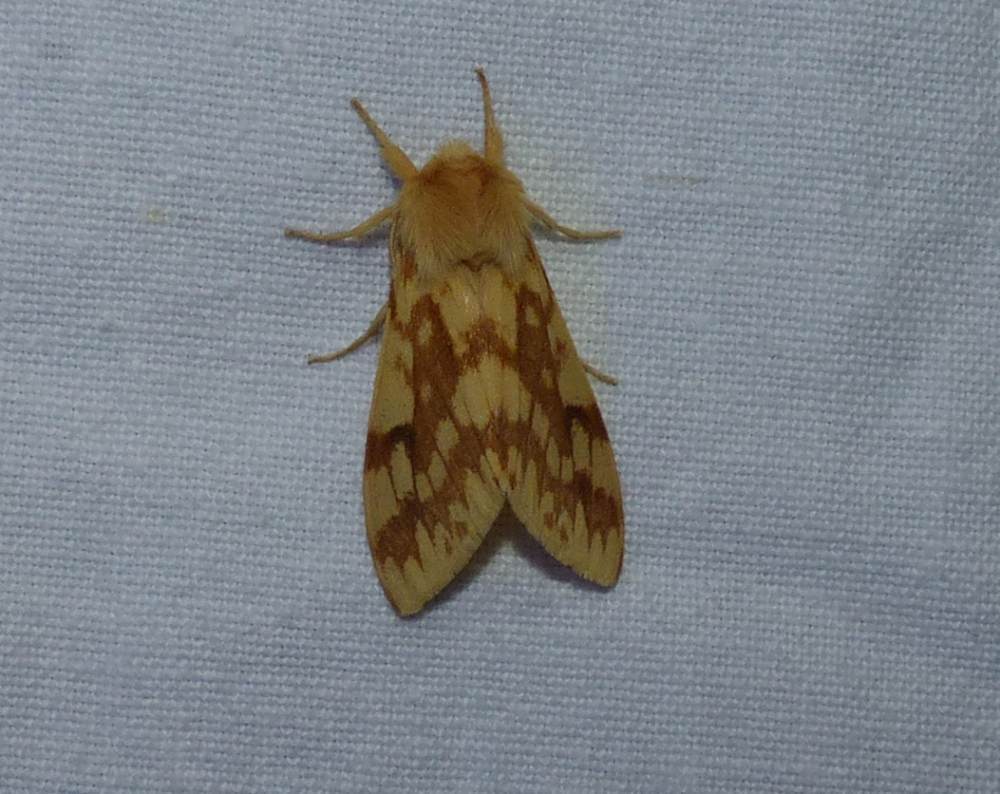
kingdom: Animalia
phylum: Arthropoda
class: Insecta
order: Lepidoptera
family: Erebidae
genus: Lophocampa
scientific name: Lophocampa maculata
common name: Spotted tussock moth
